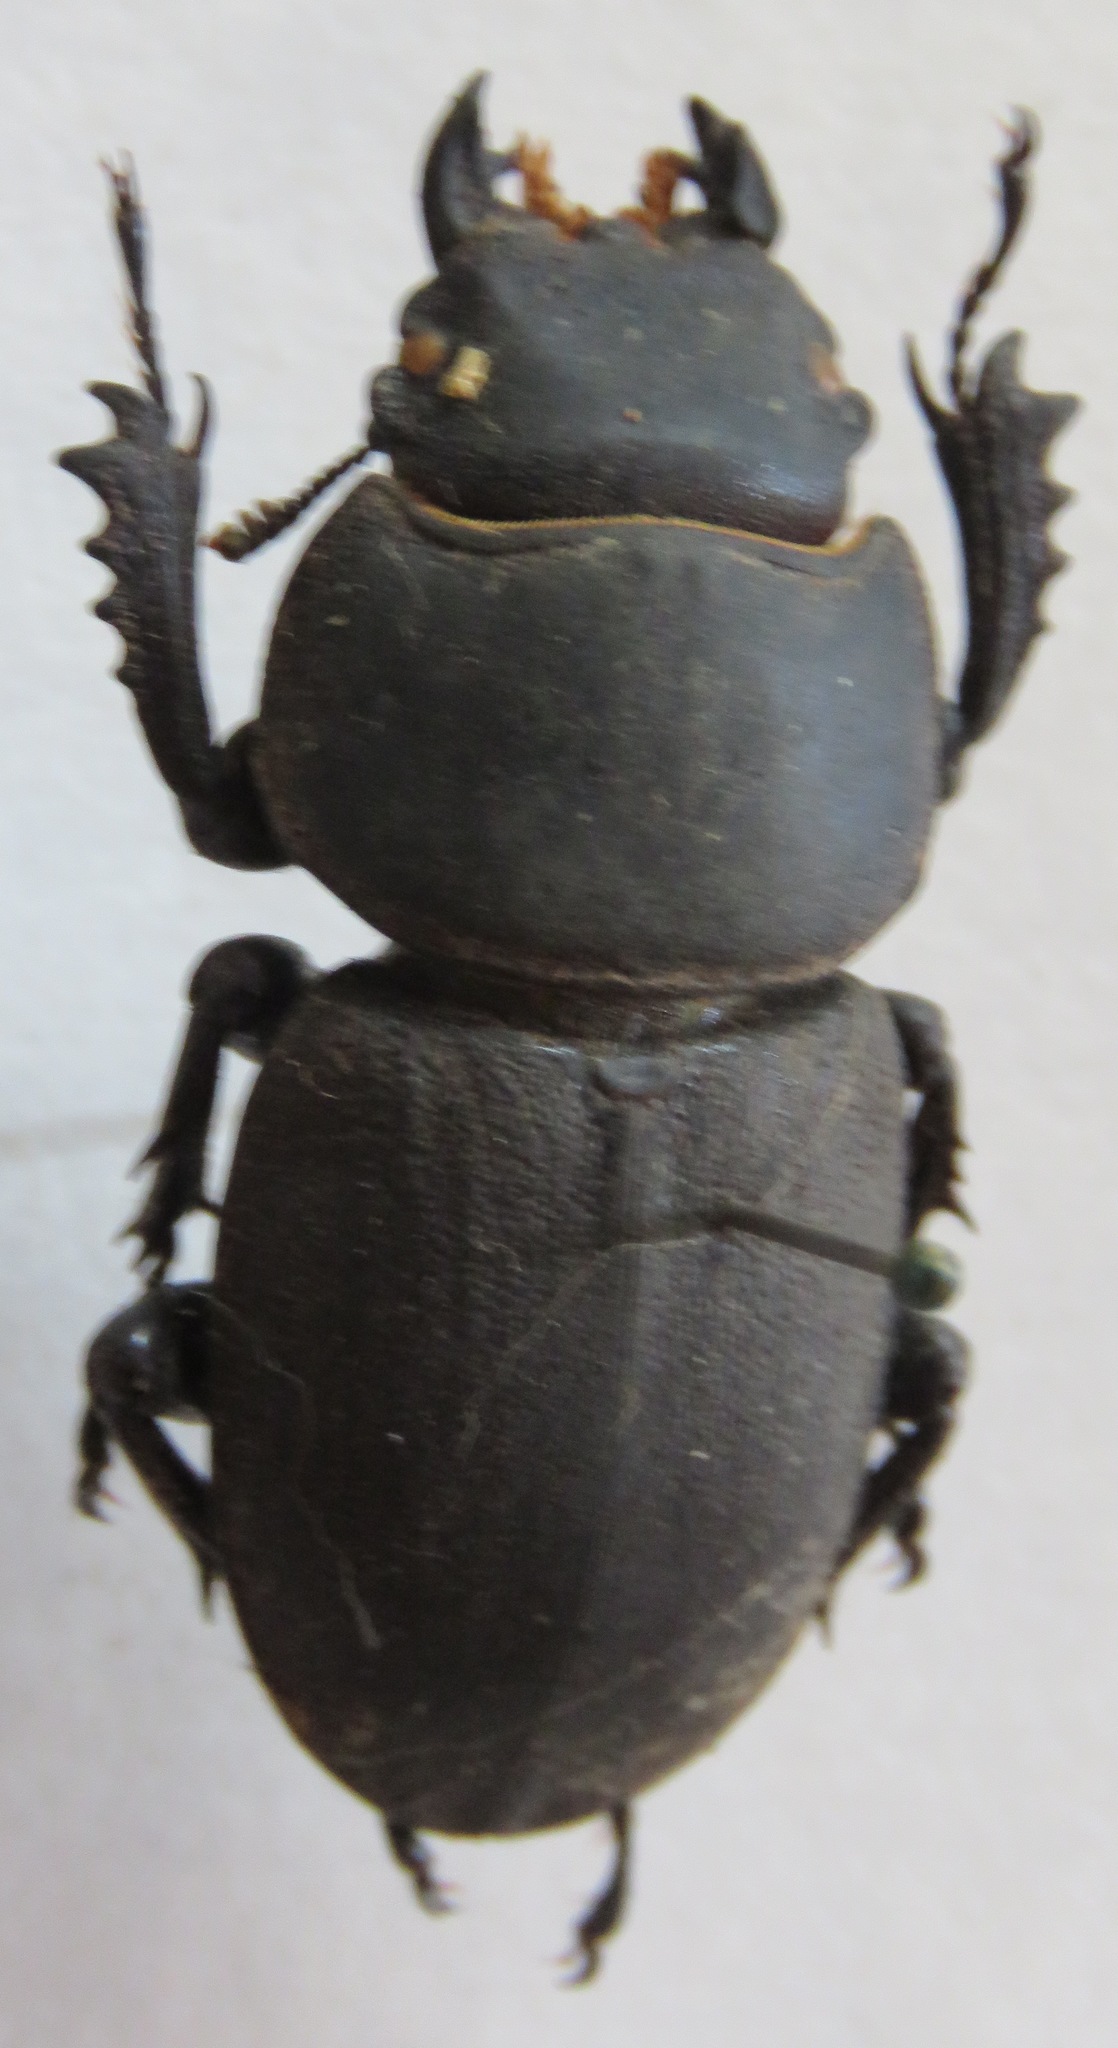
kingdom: Animalia
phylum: Arthropoda
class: Insecta
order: Coleoptera
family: Lucanidae
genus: Apterodorcus
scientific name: Apterodorcus bacchus
